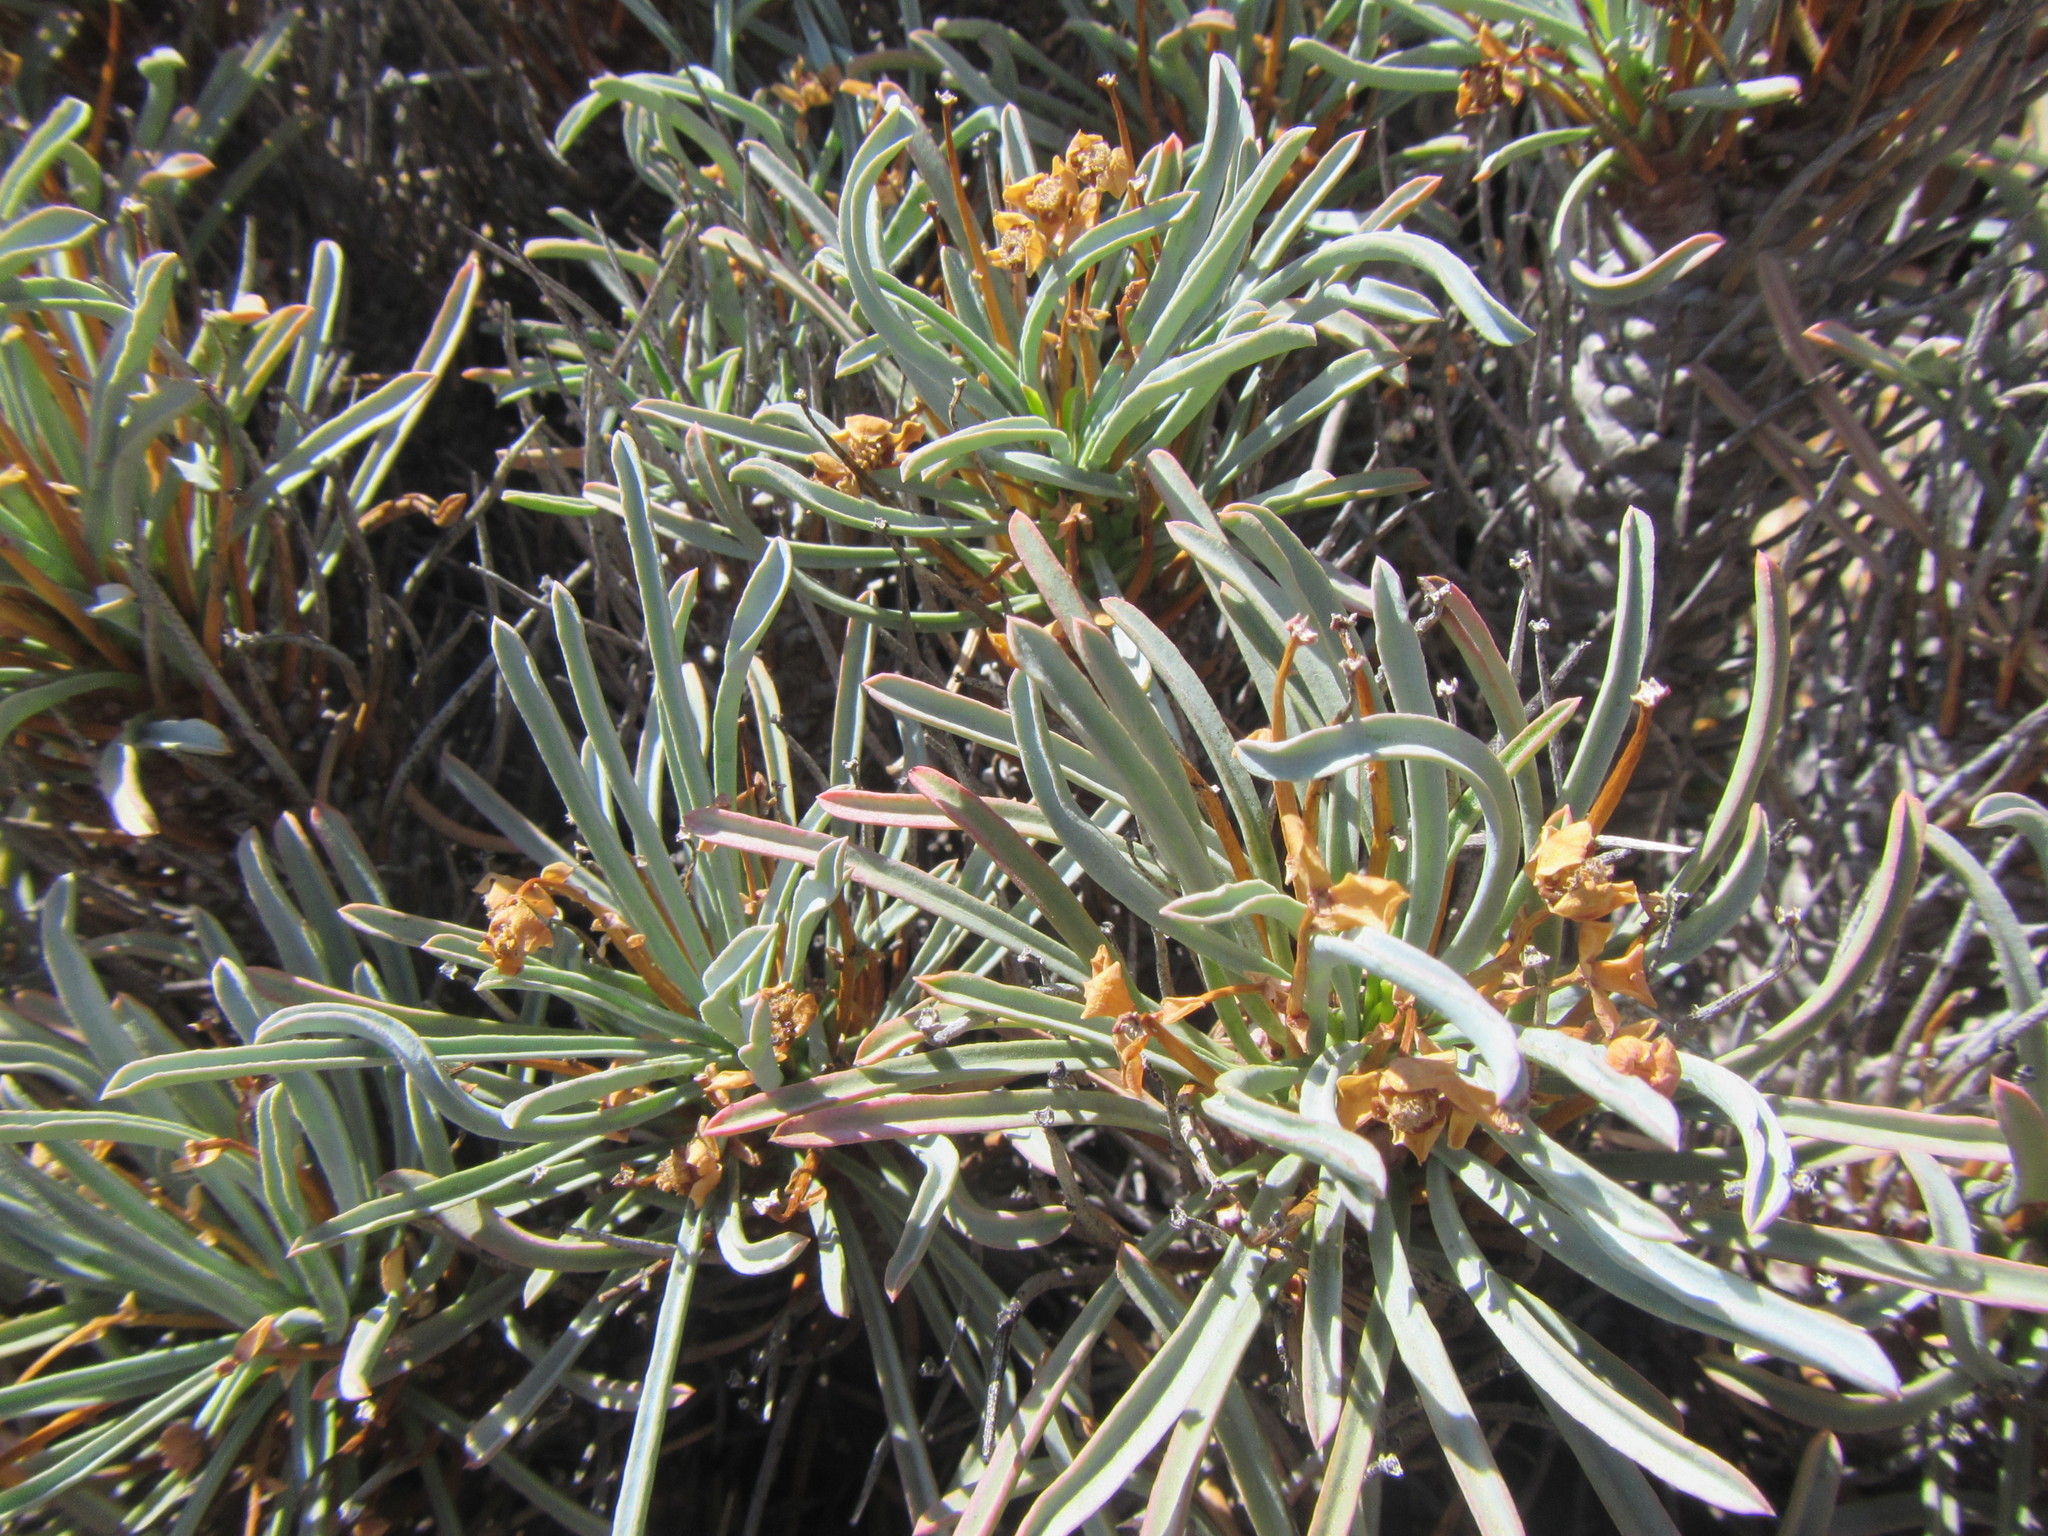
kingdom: Plantae
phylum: Tracheophyta
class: Magnoliopsida
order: Malpighiales
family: Euphorbiaceae
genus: Euphorbia
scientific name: Euphorbia multifolia
